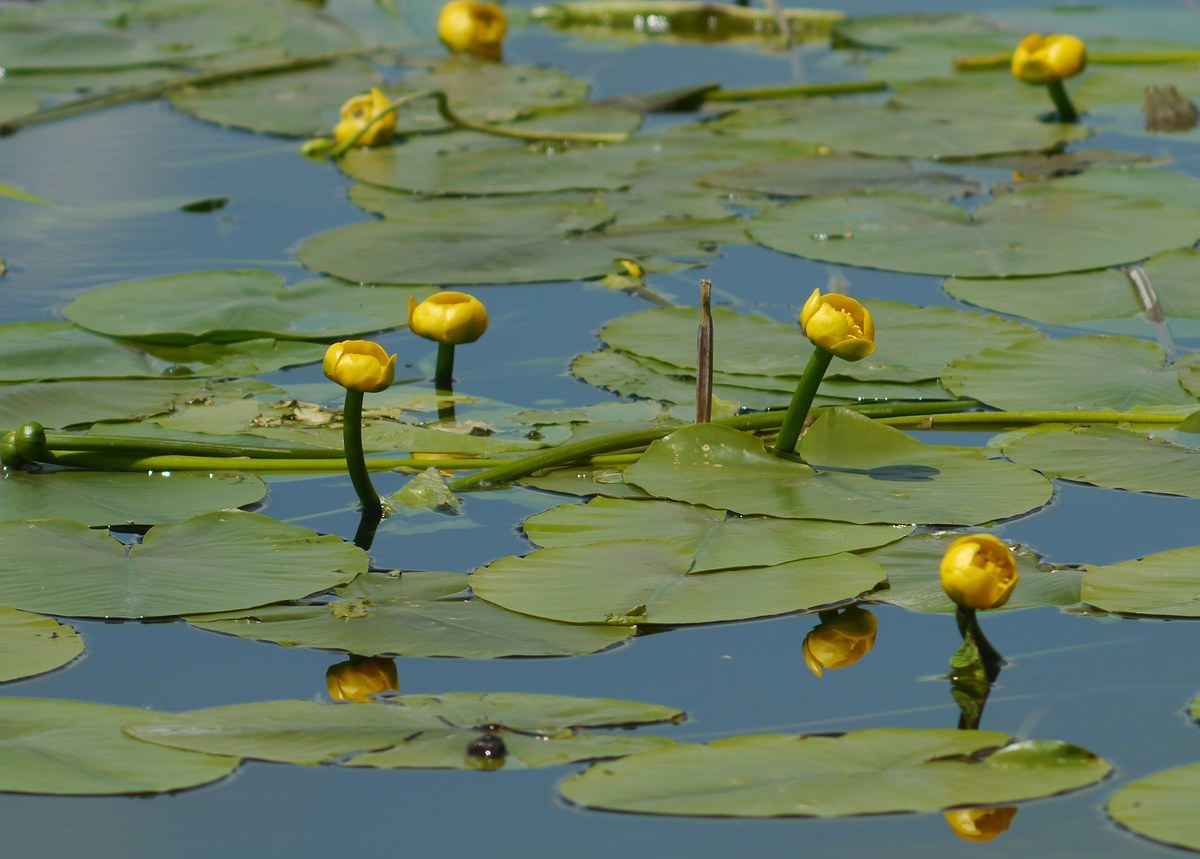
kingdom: Plantae
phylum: Tracheophyta
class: Magnoliopsida
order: Nymphaeales
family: Nymphaeaceae
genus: Nuphar
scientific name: Nuphar lutea
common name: Yellow water-lily
